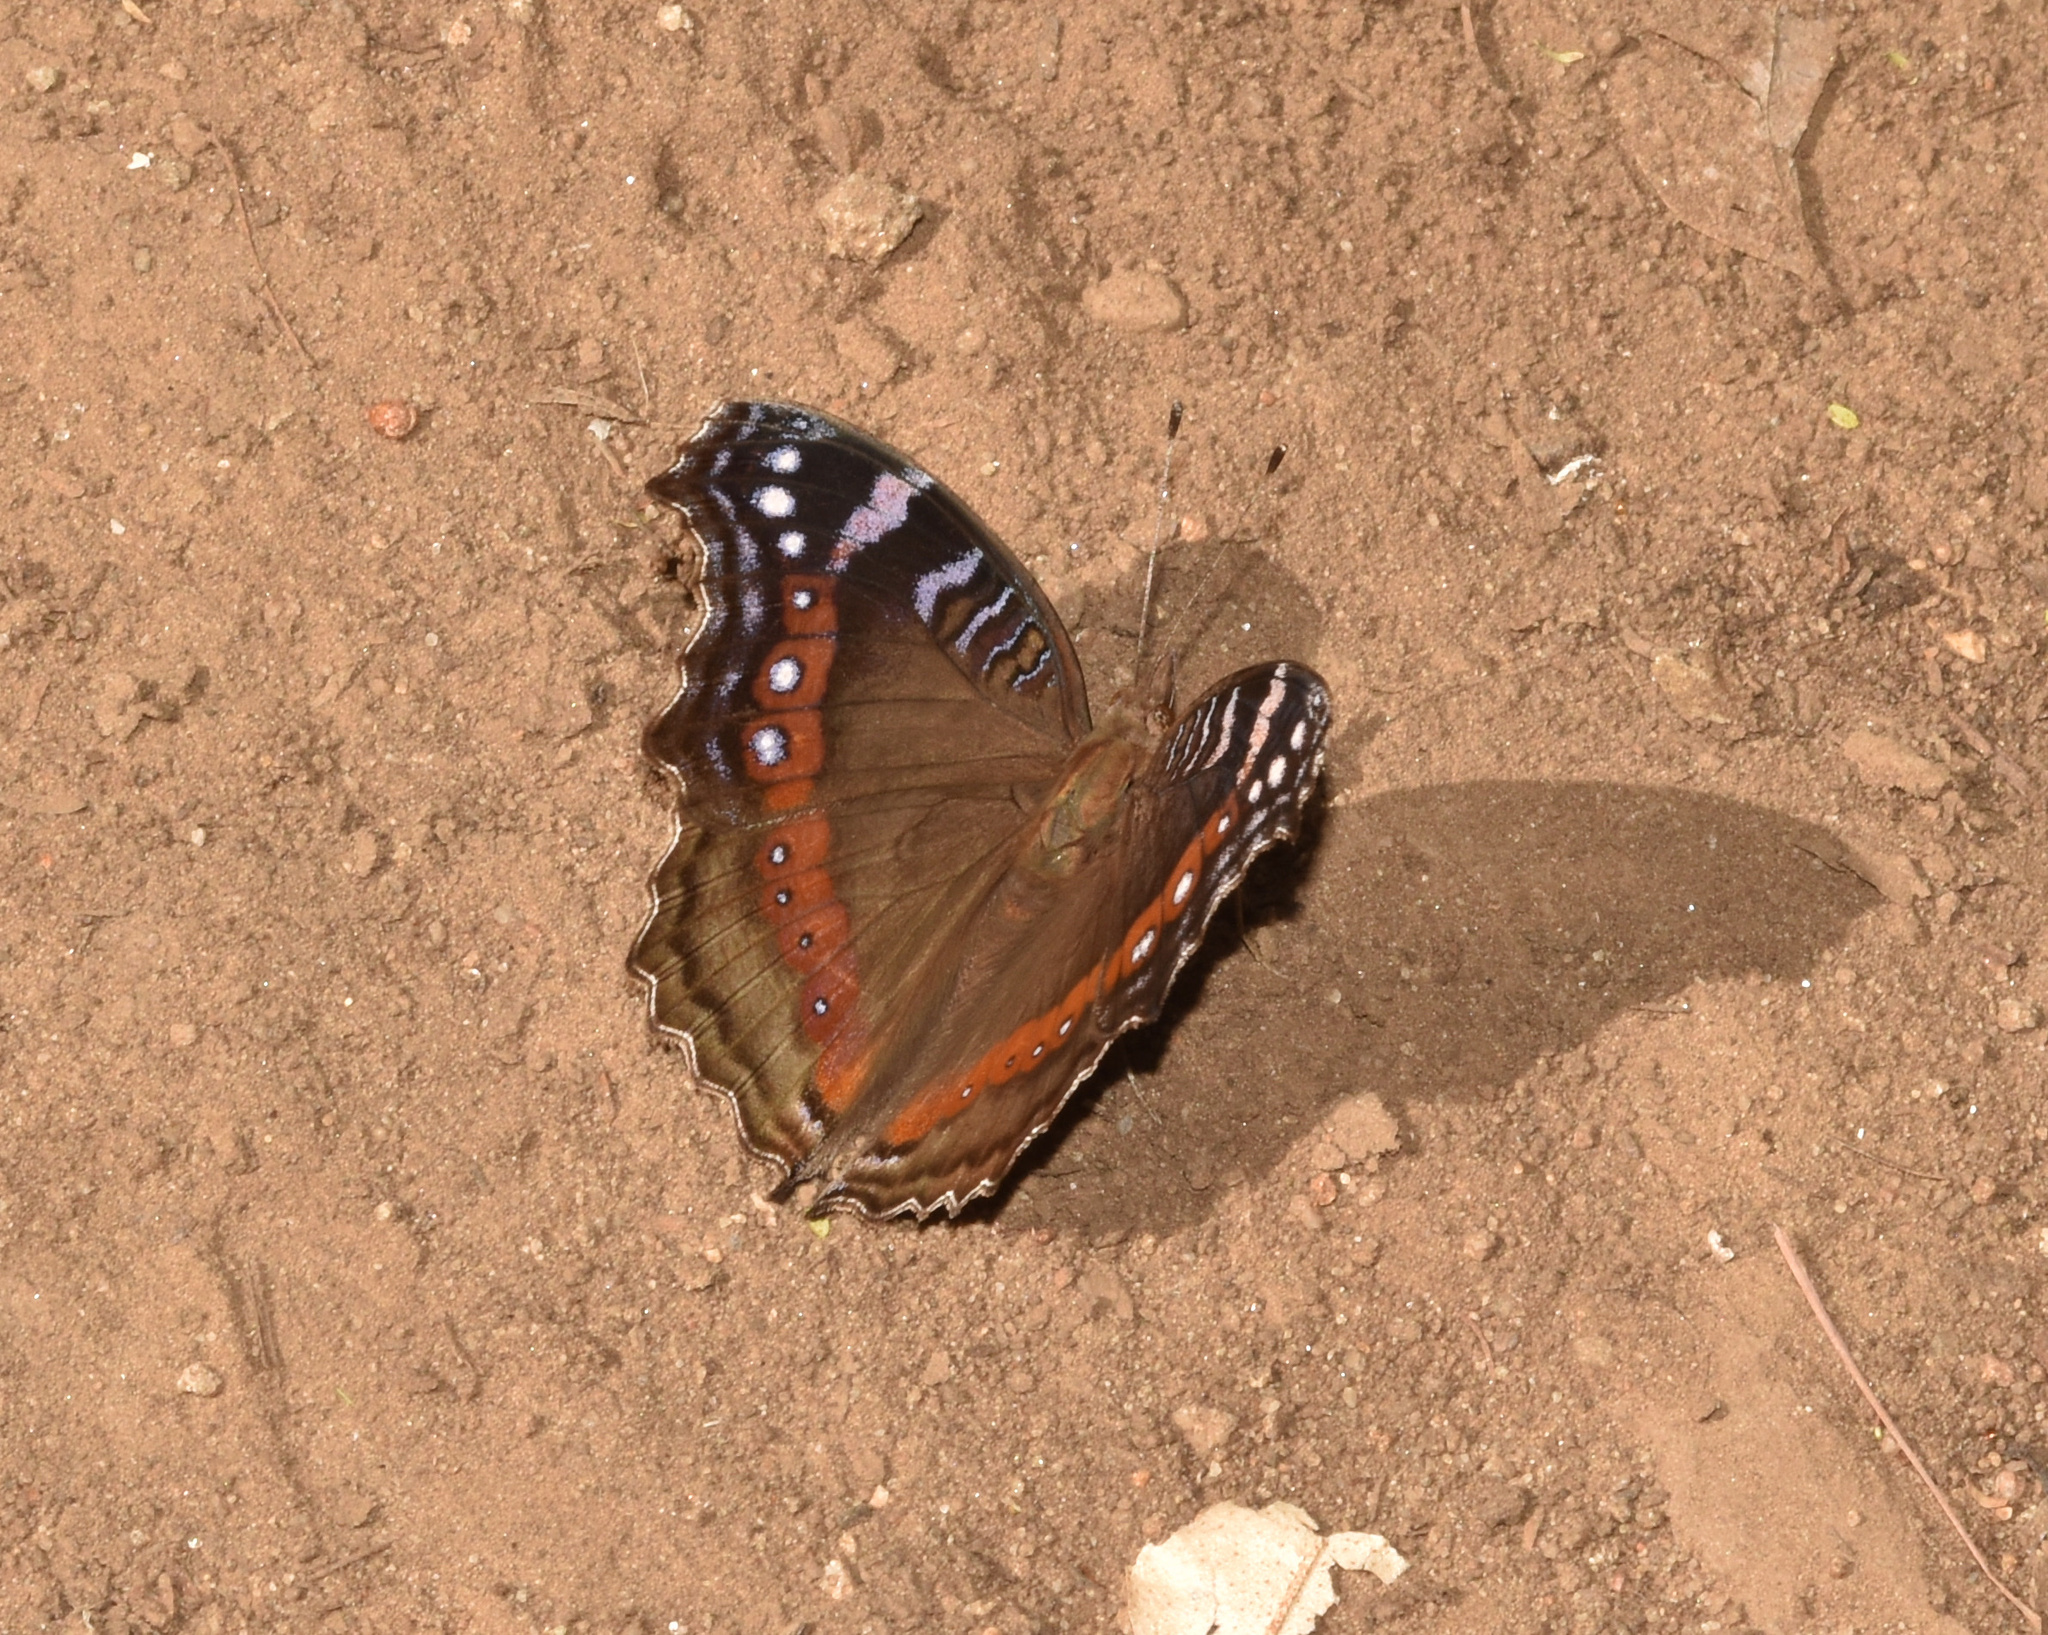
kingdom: Animalia
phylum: Arthropoda
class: Insecta
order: Lepidoptera
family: Nymphalidae
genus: Junonia
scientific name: Junonia archesia
